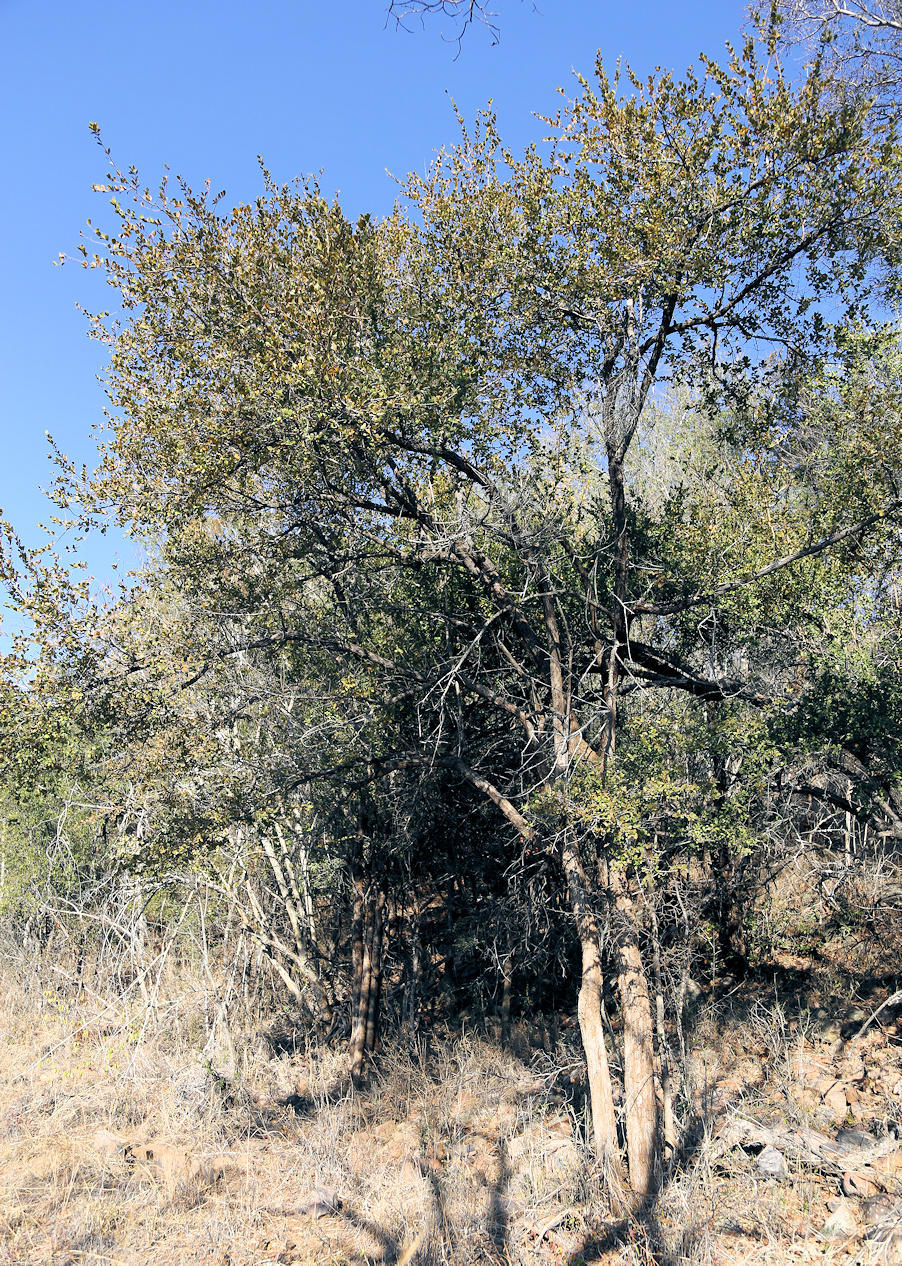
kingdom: Plantae
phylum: Tracheophyta
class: Magnoliopsida
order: Myrtales
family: Combretaceae
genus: Combretum
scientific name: Combretum hereroense
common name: Russet bushwillow
